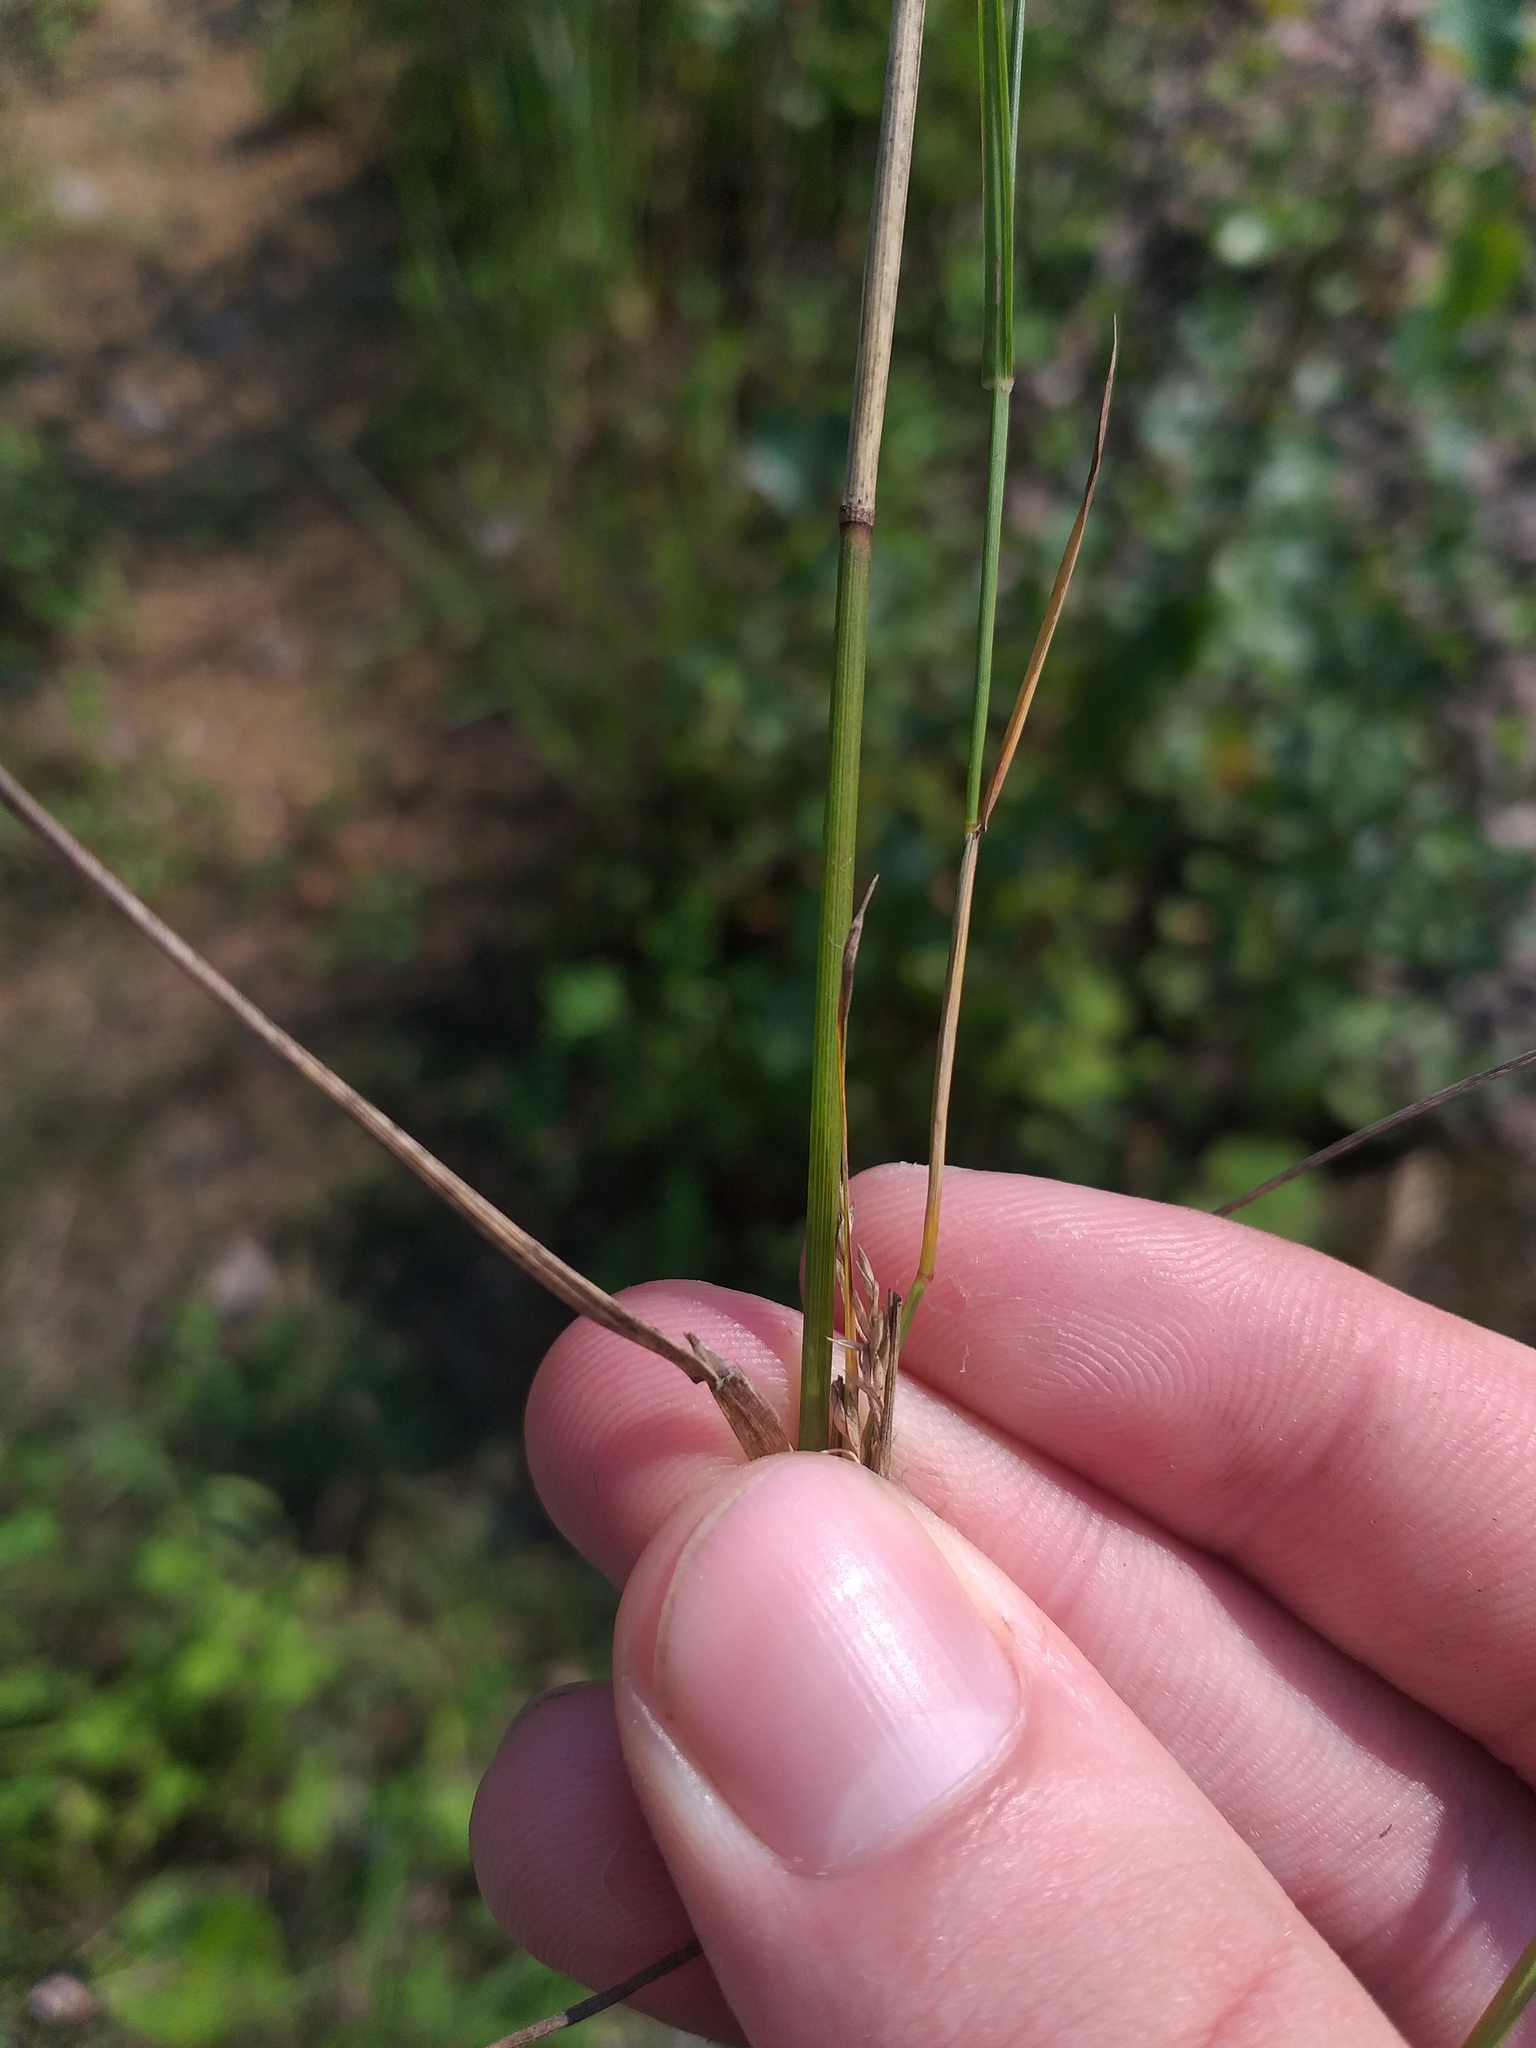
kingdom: Plantae
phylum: Tracheophyta
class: Liliopsida
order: Poales
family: Poaceae
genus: Poa
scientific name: Poa palustris
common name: Swamp meadow-grass
